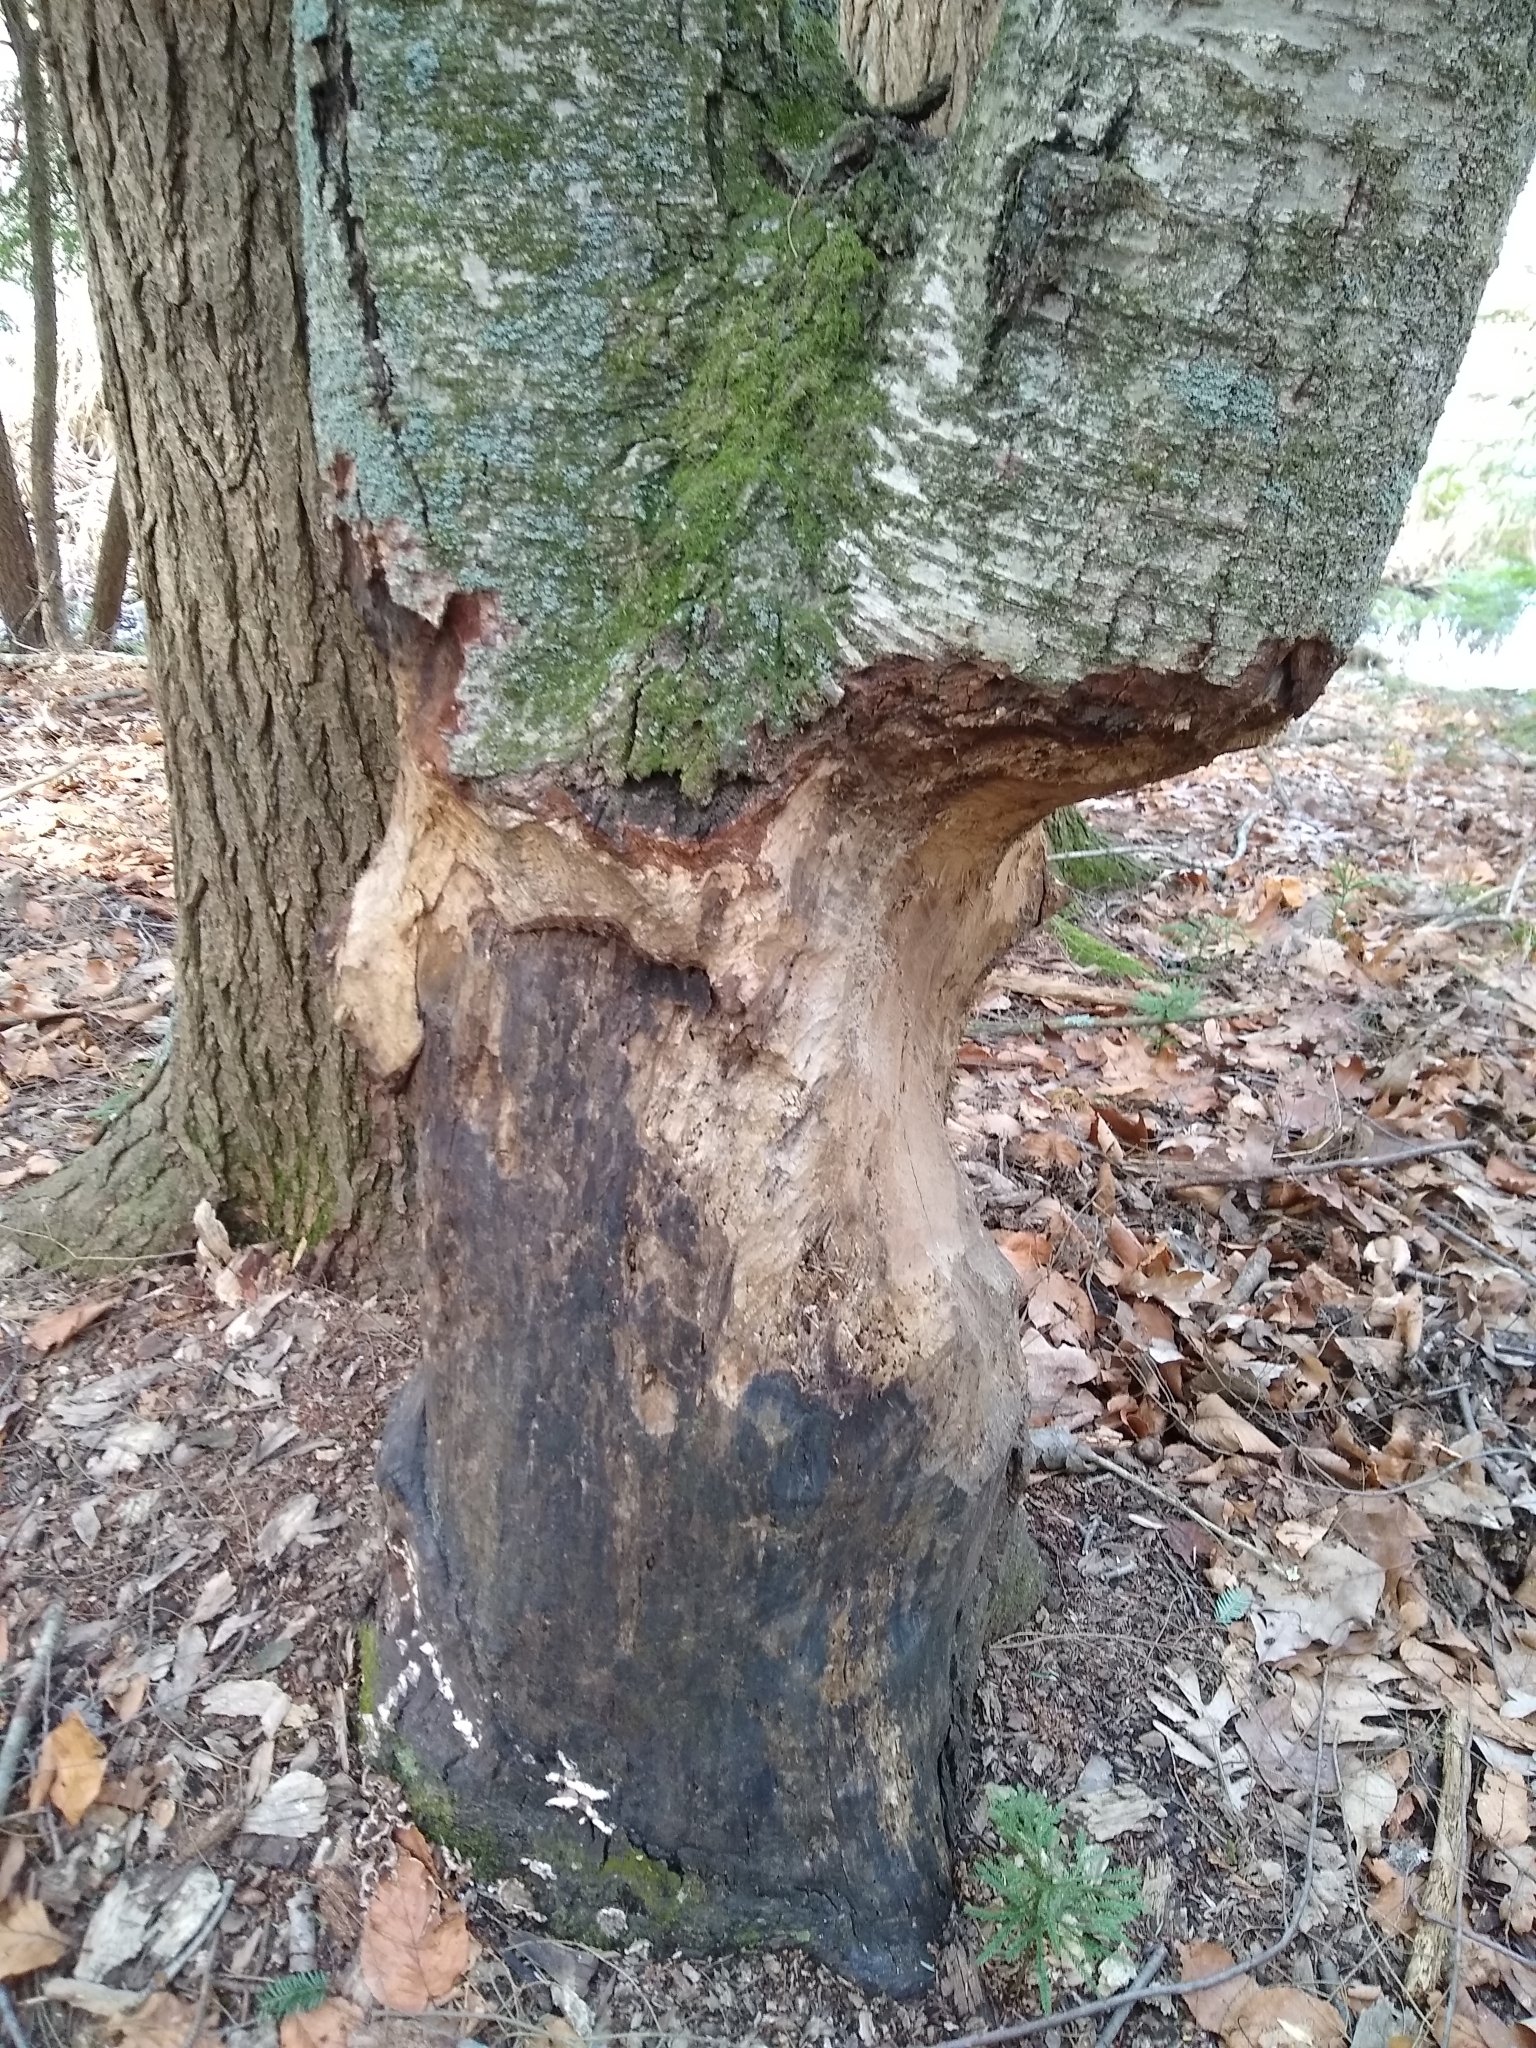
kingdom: Animalia
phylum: Chordata
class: Mammalia
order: Rodentia
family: Castoridae
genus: Castor
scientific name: Castor canadensis
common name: American beaver
